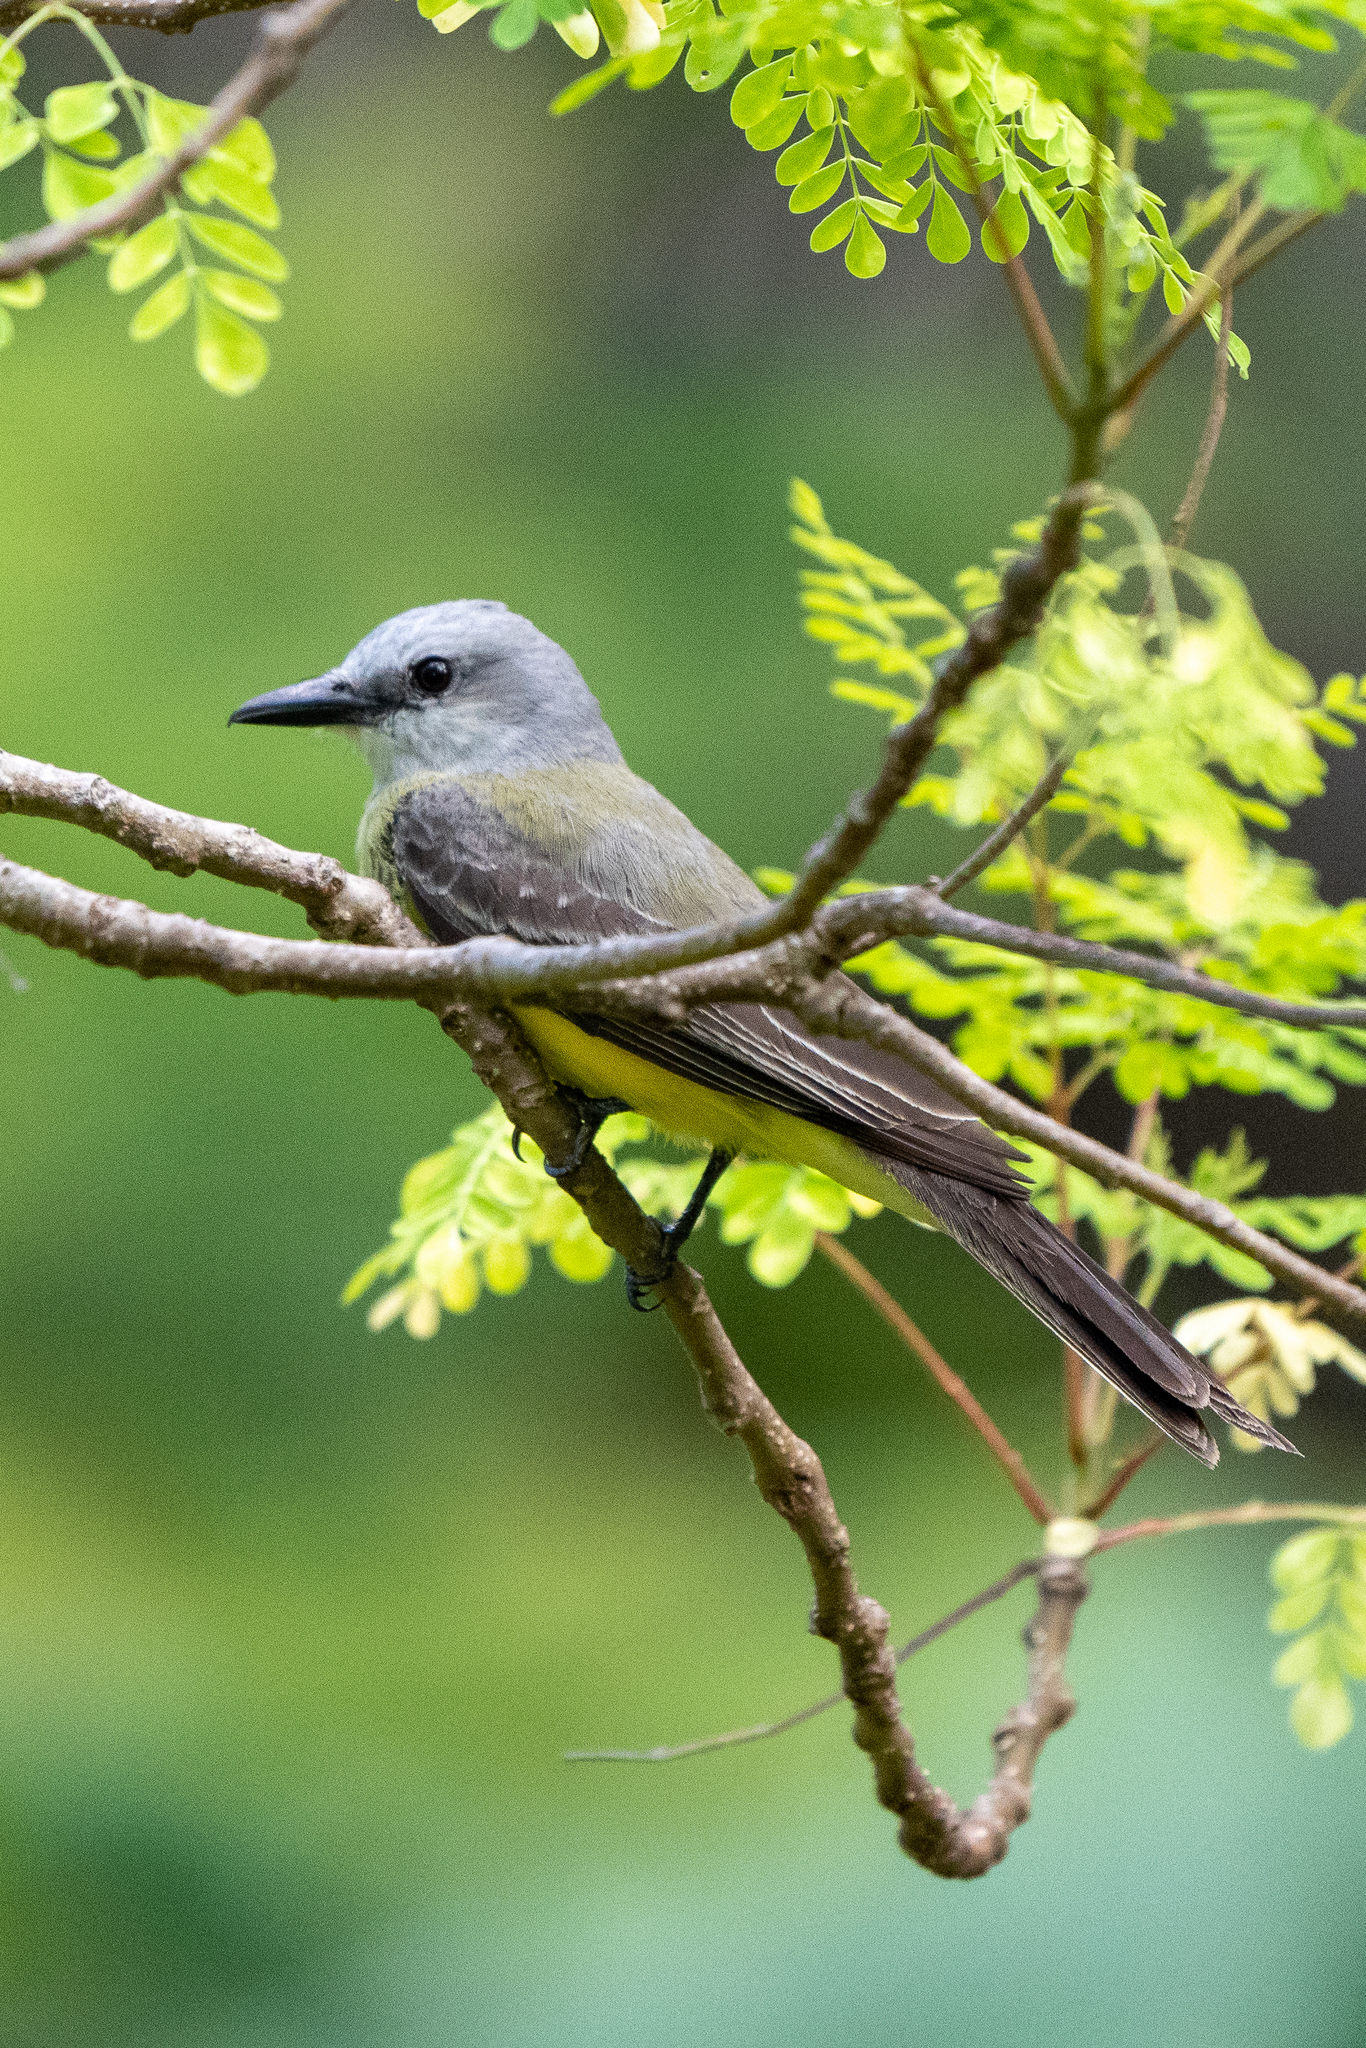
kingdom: Animalia
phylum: Chordata
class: Aves
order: Passeriformes
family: Tyrannidae
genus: Tyrannus
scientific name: Tyrannus melancholicus
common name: Tropical kingbird
